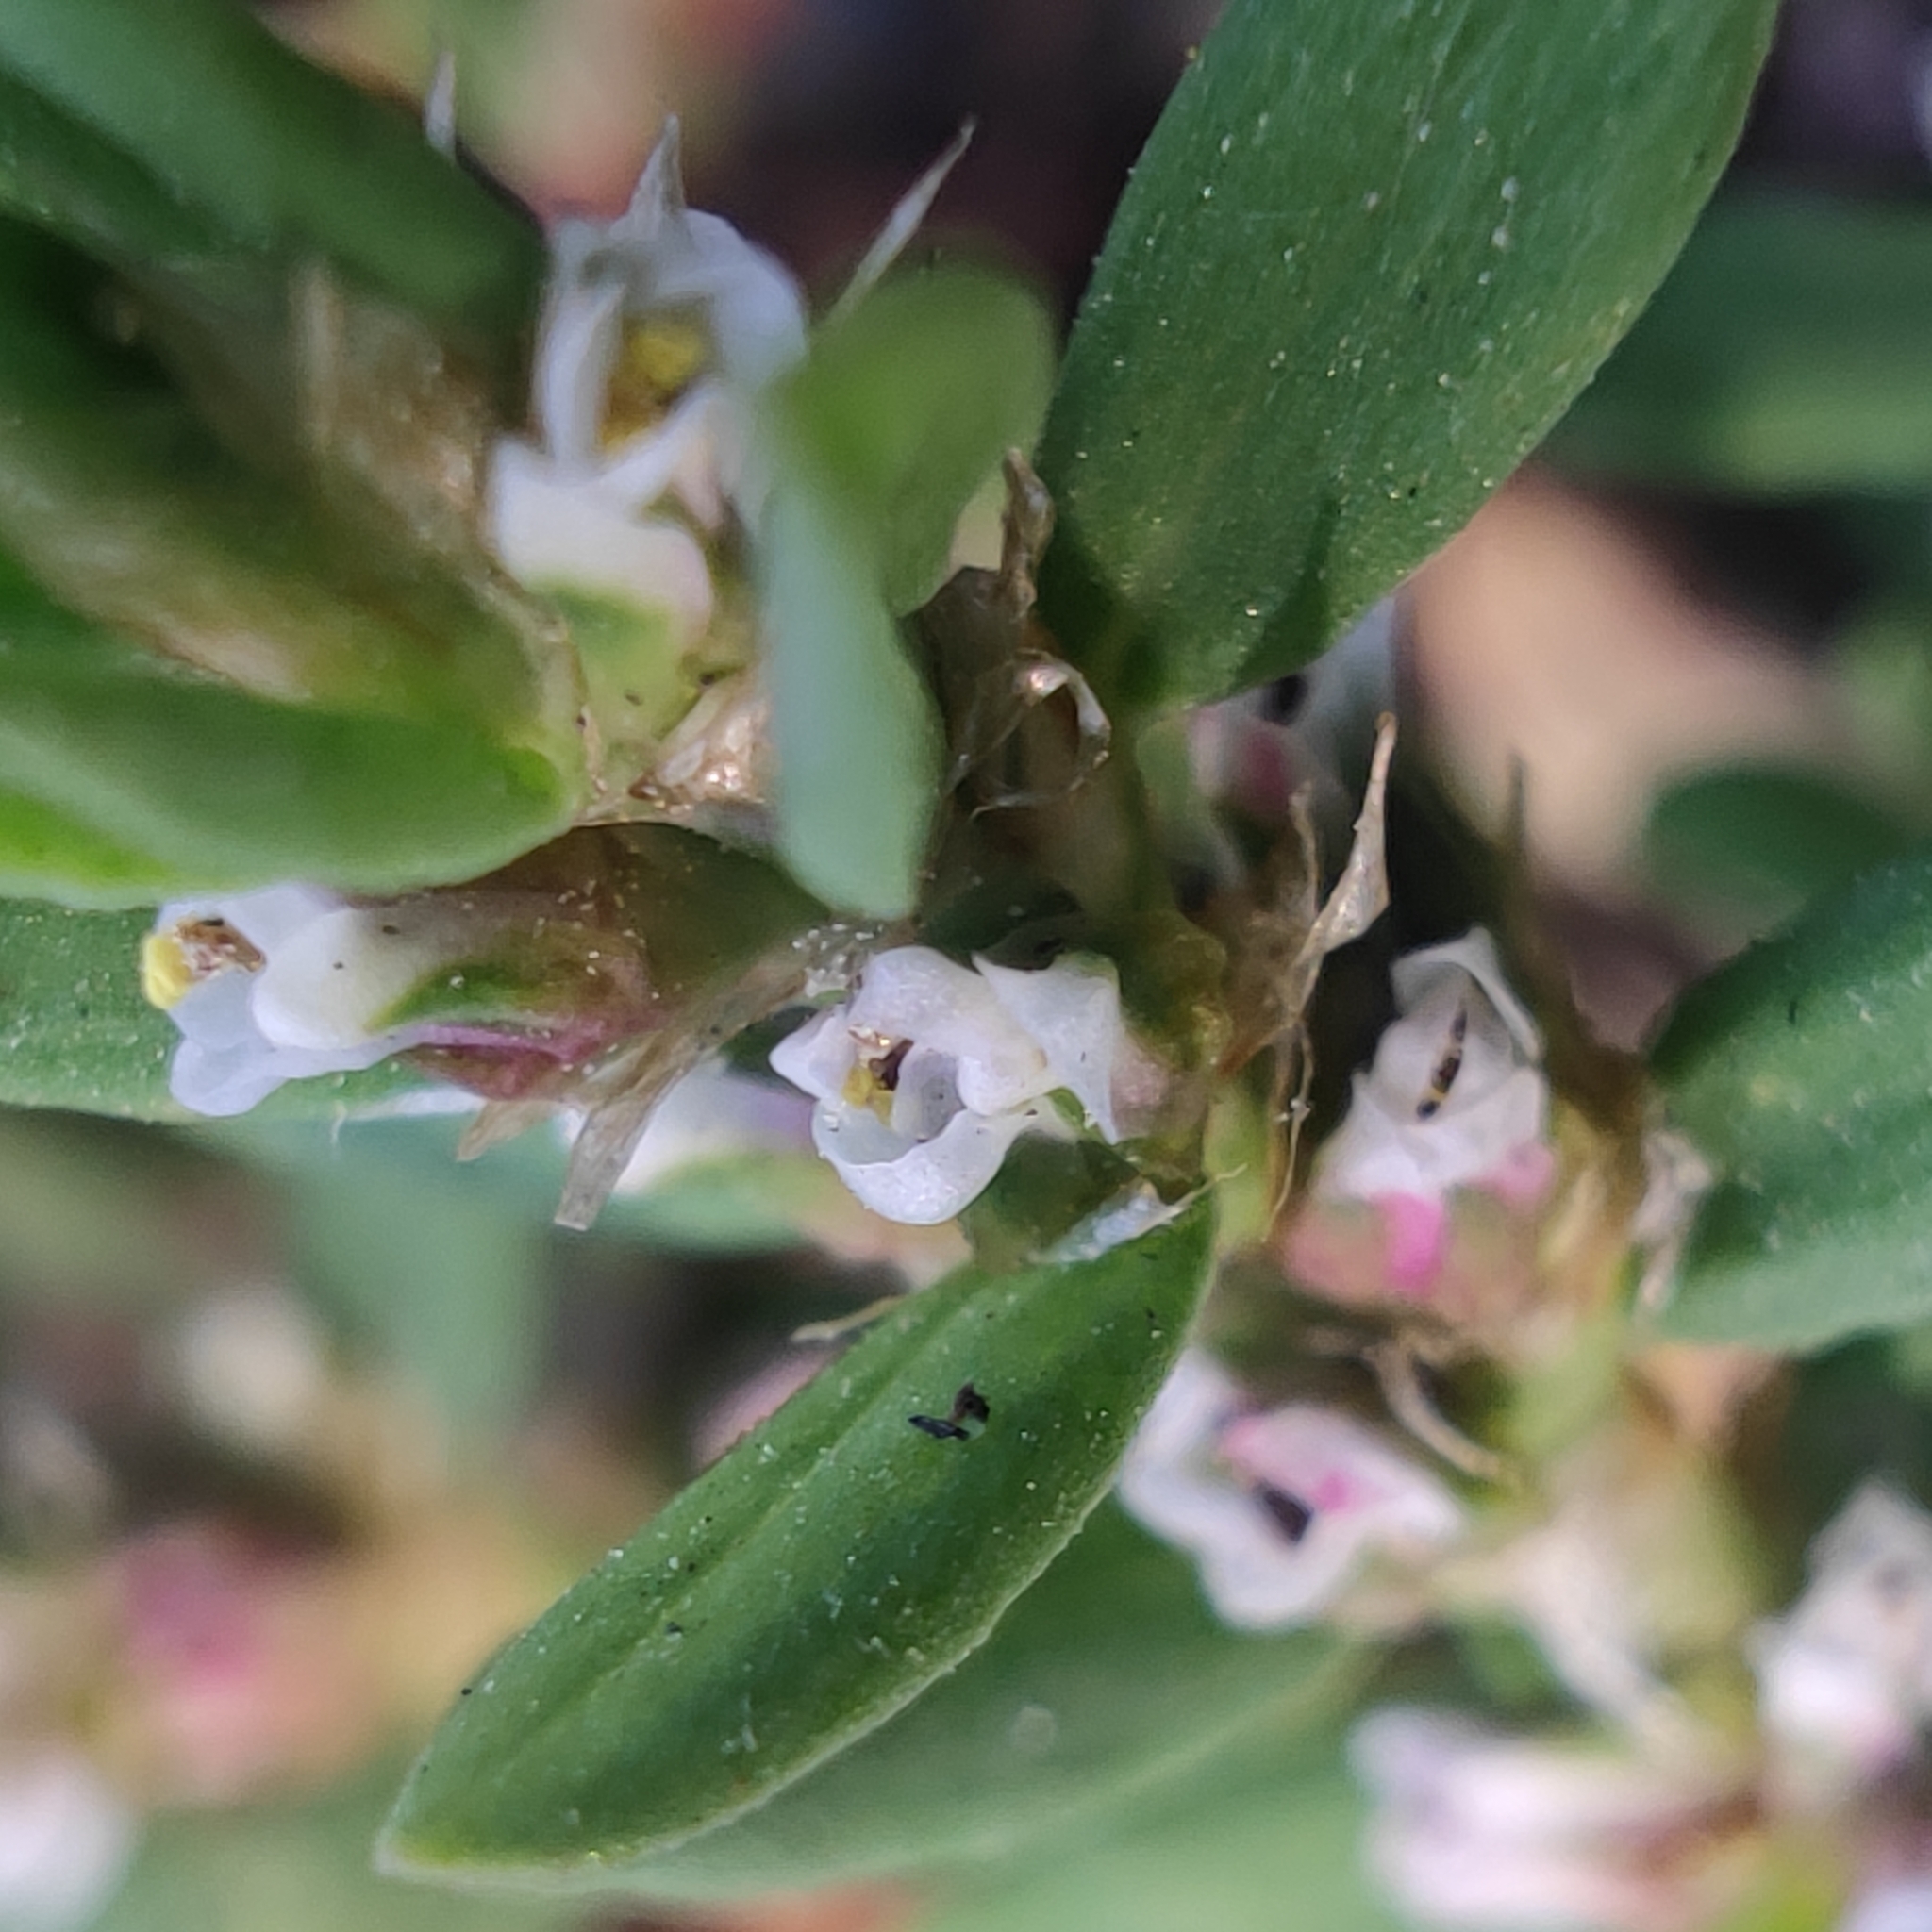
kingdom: Plantae
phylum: Tracheophyta
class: Magnoliopsida
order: Caryophyllales
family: Polygonaceae
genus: Polygonum
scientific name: Polygonum aviculare
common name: Prostrate knotweed
